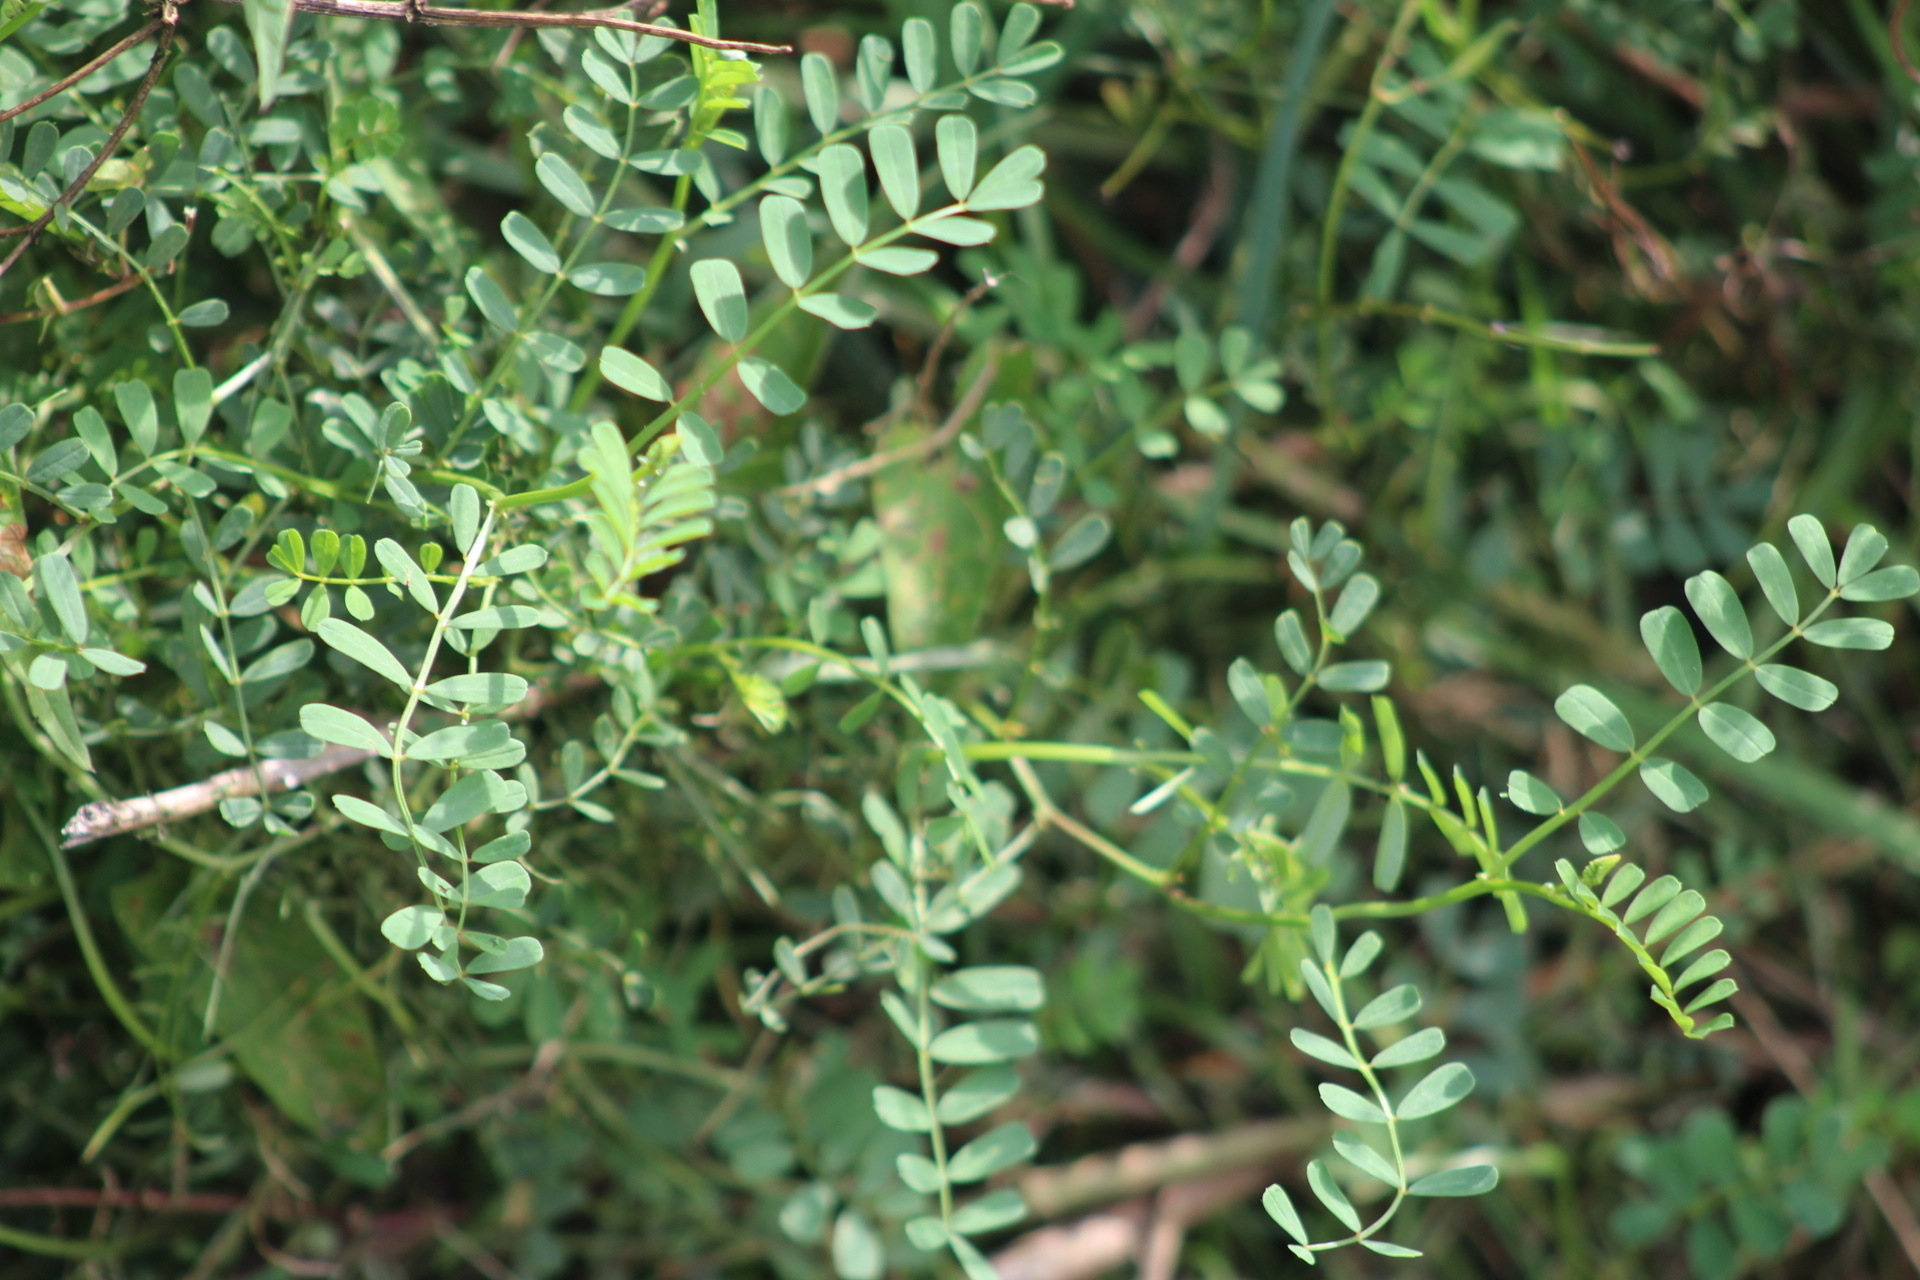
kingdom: Plantae
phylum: Tracheophyta
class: Magnoliopsida
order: Fabales
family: Fabaceae
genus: Coronilla
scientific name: Coronilla varia
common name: Crownvetch
